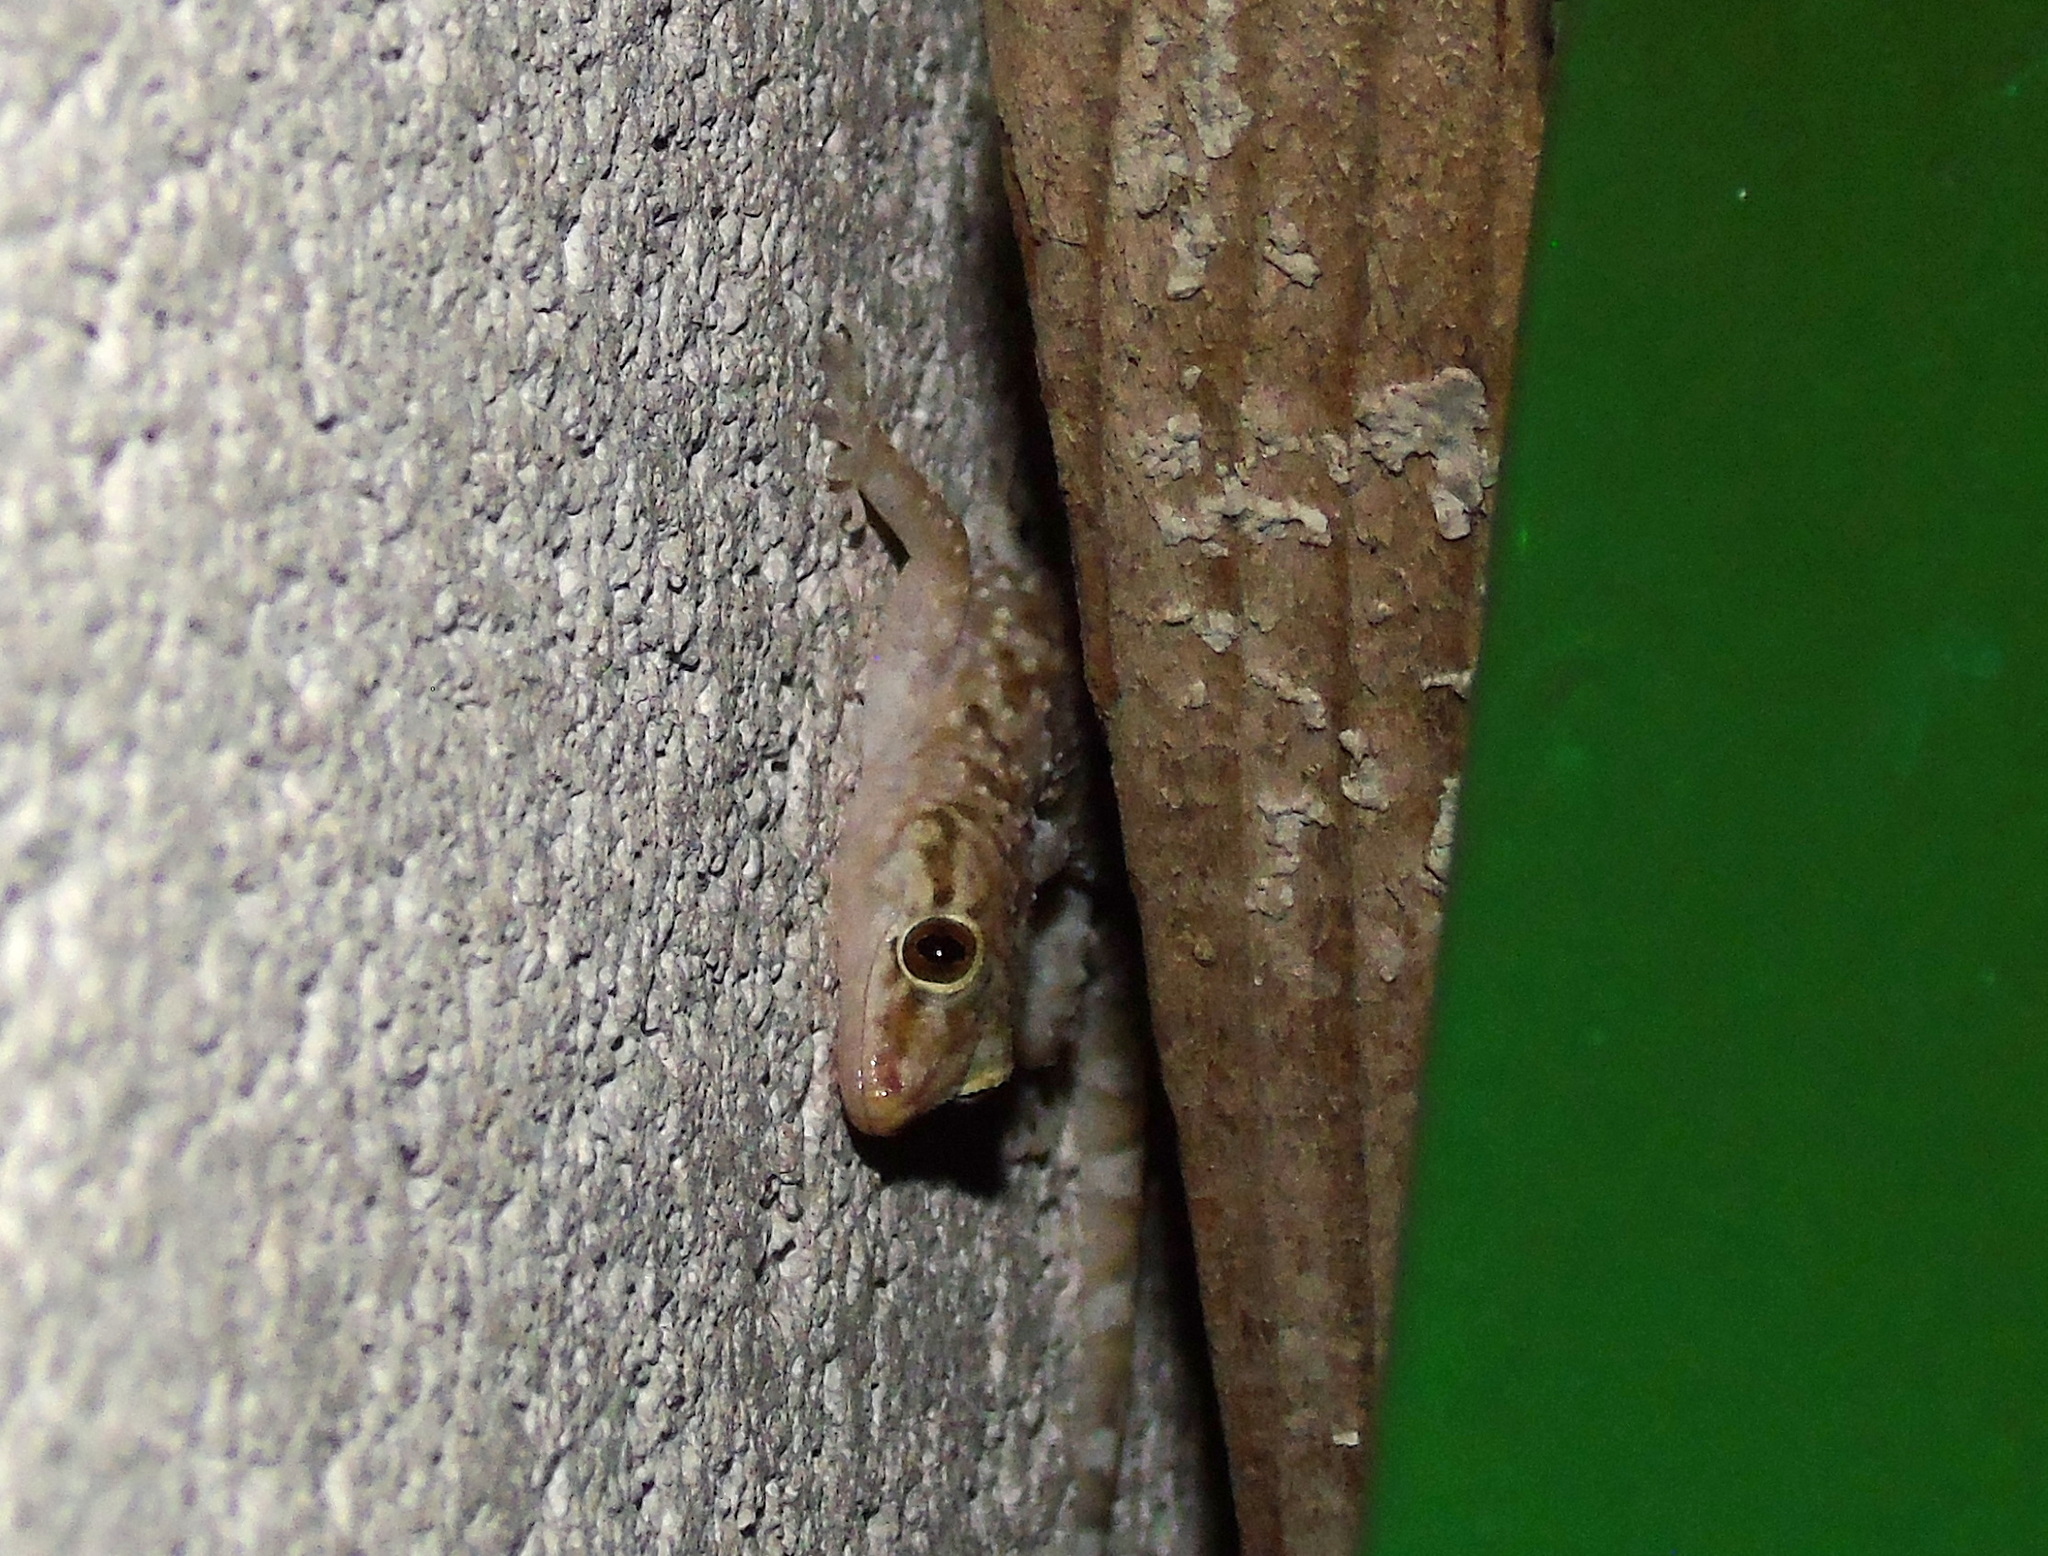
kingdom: Animalia
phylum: Chordata
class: Squamata
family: Gekkonidae
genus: Hemidactylus
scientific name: Hemidactylus turcicus
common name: Turkish gecko
